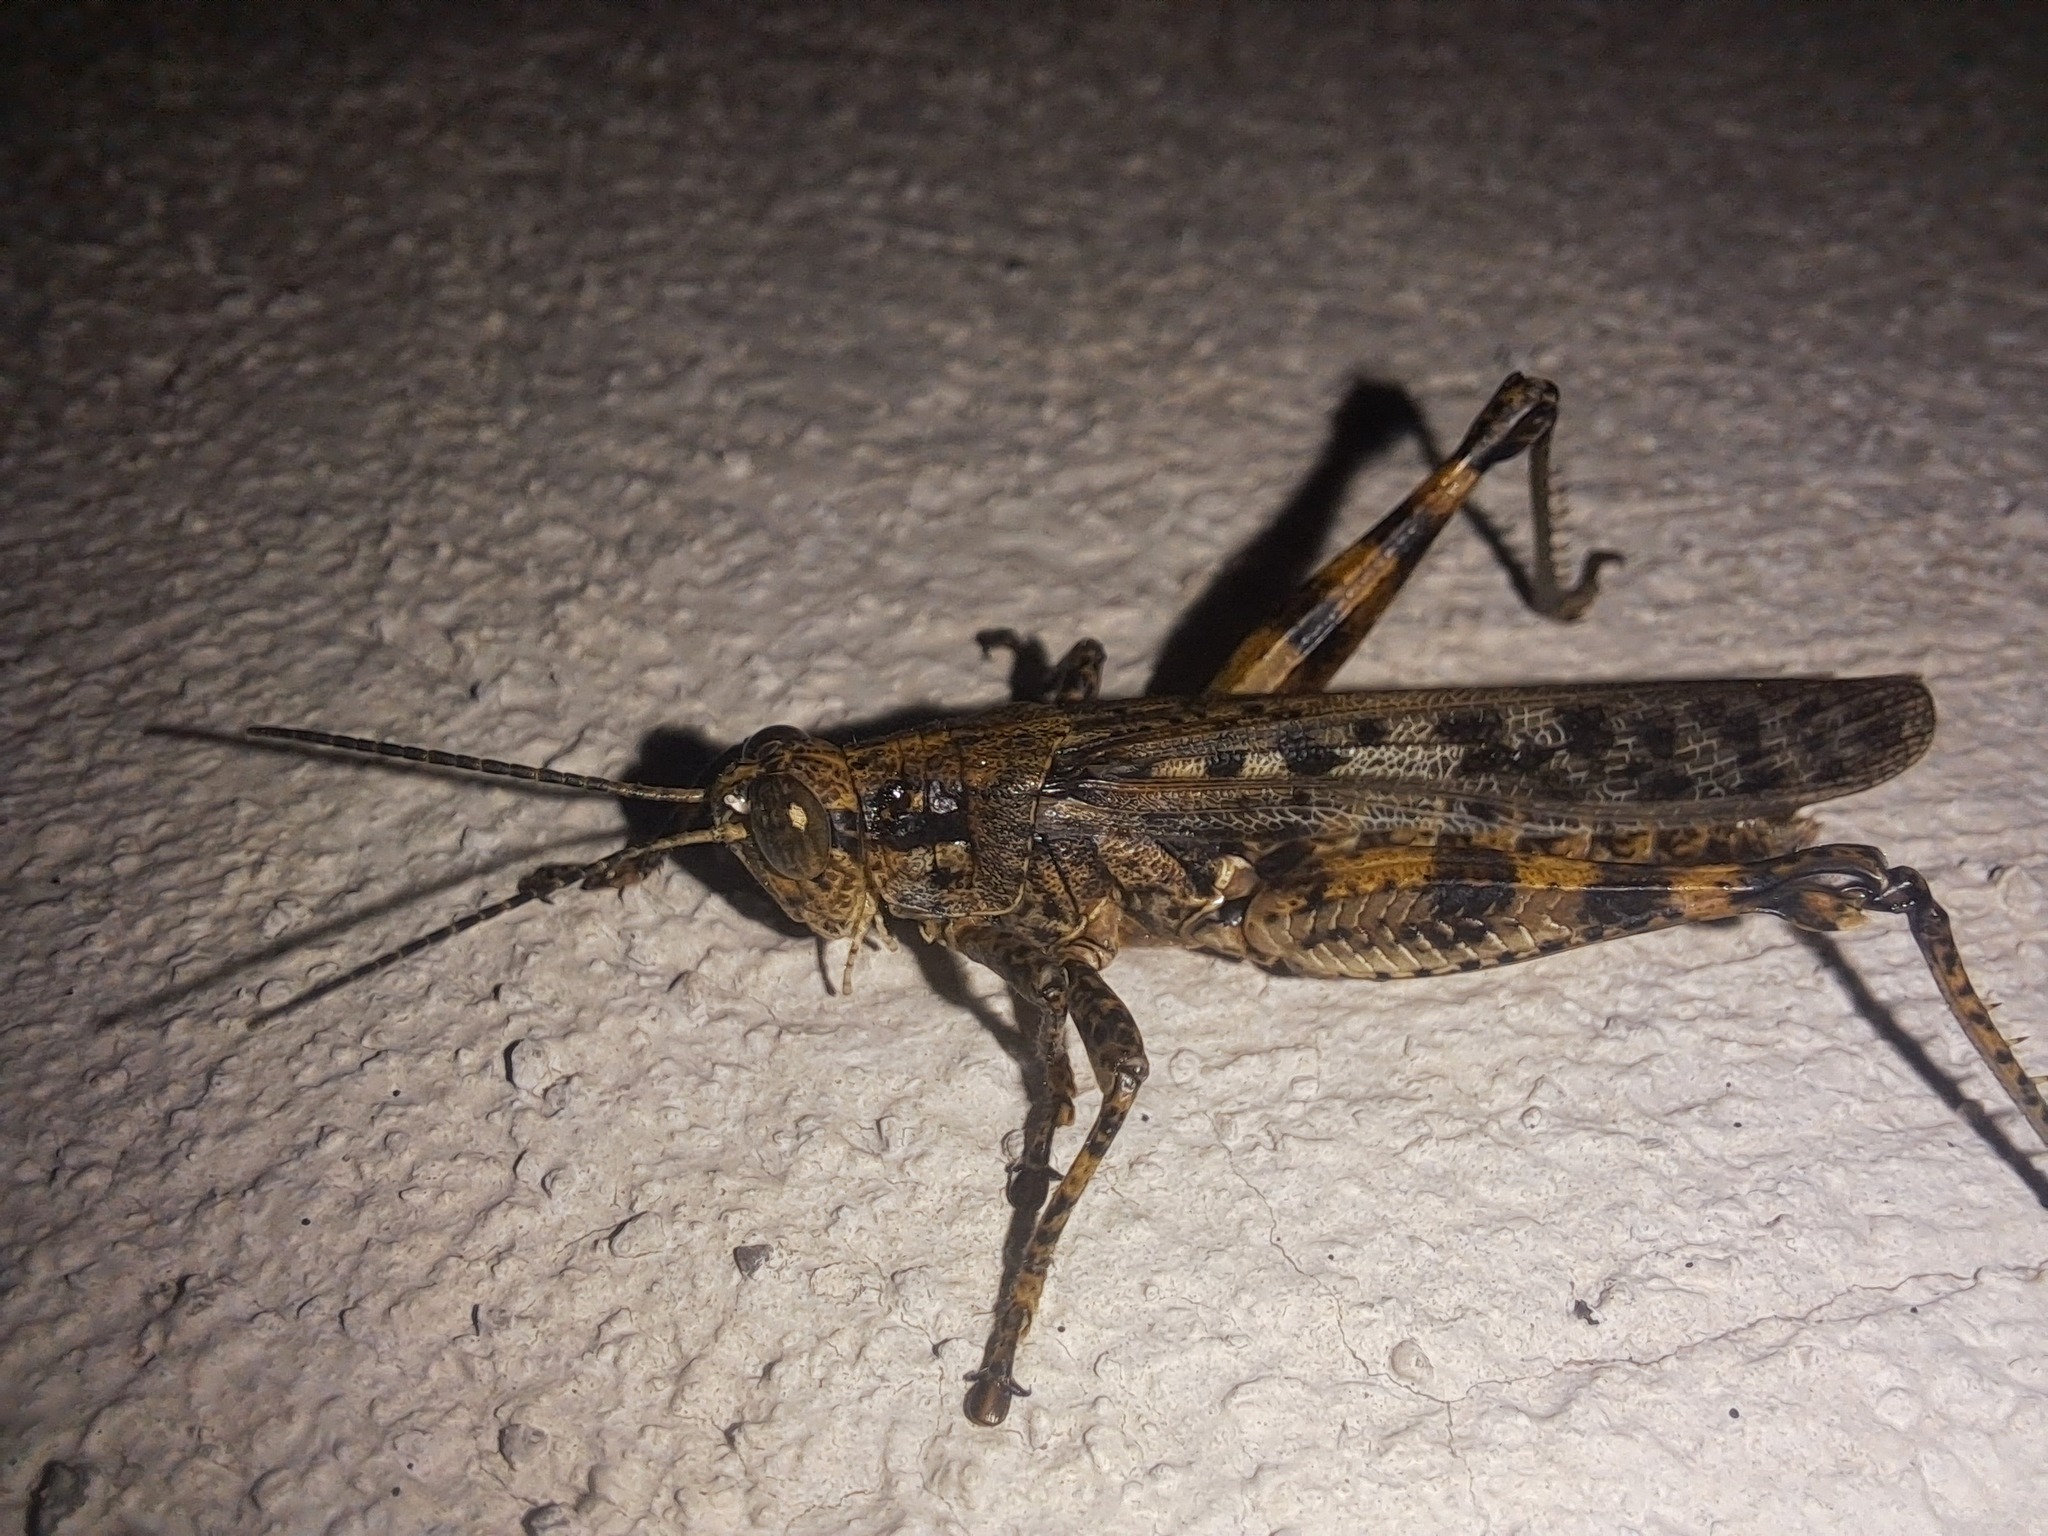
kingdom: Animalia
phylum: Arthropoda
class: Insecta
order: Orthoptera
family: Acrididae
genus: Schistocerca
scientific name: Schistocerca literosa
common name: Small painted locust
